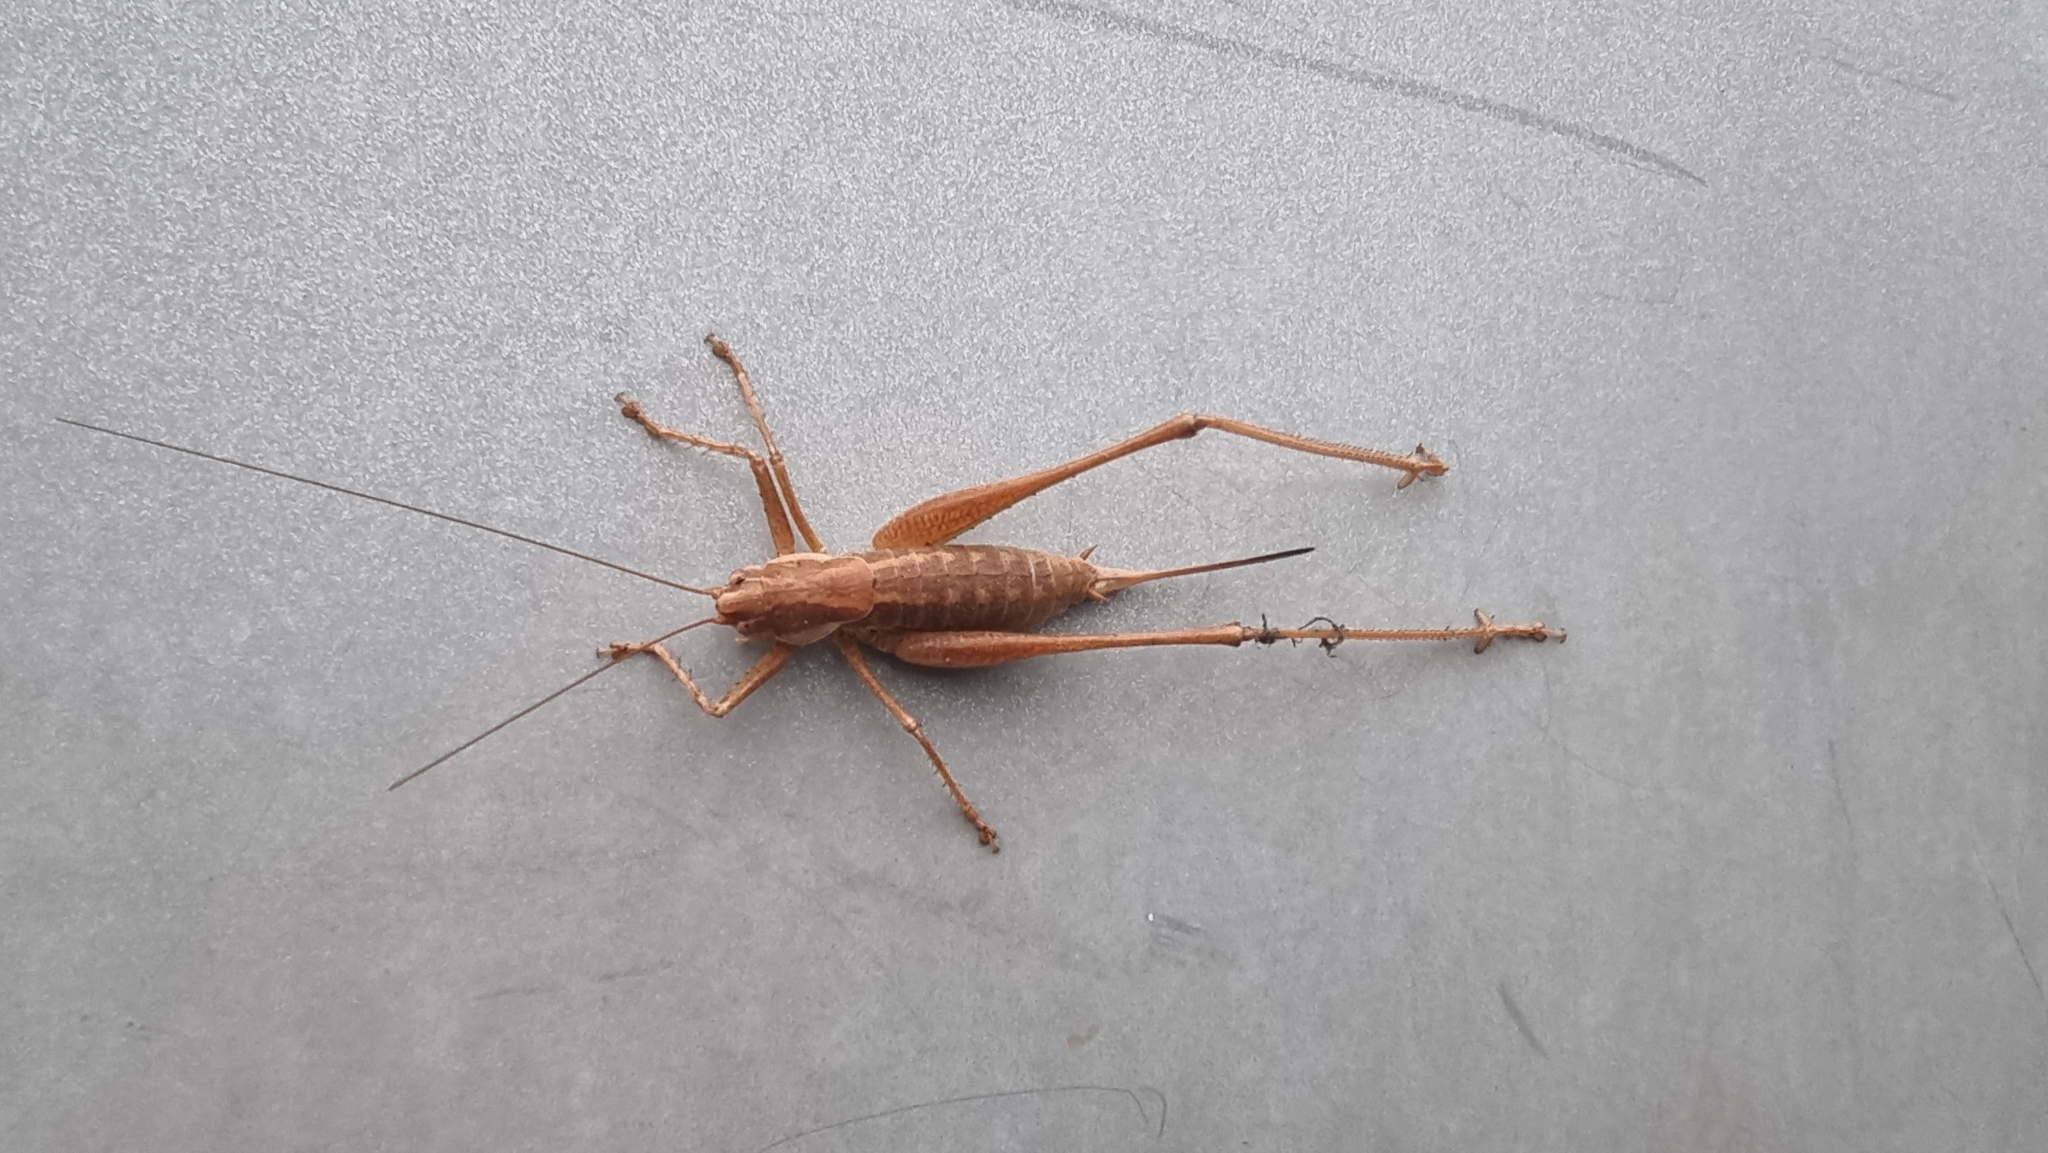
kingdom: Animalia
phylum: Arthropoda
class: Insecta
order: Orthoptera
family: Tettigoniidae
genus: Rhacocleis
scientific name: Rhacocleis annulata
